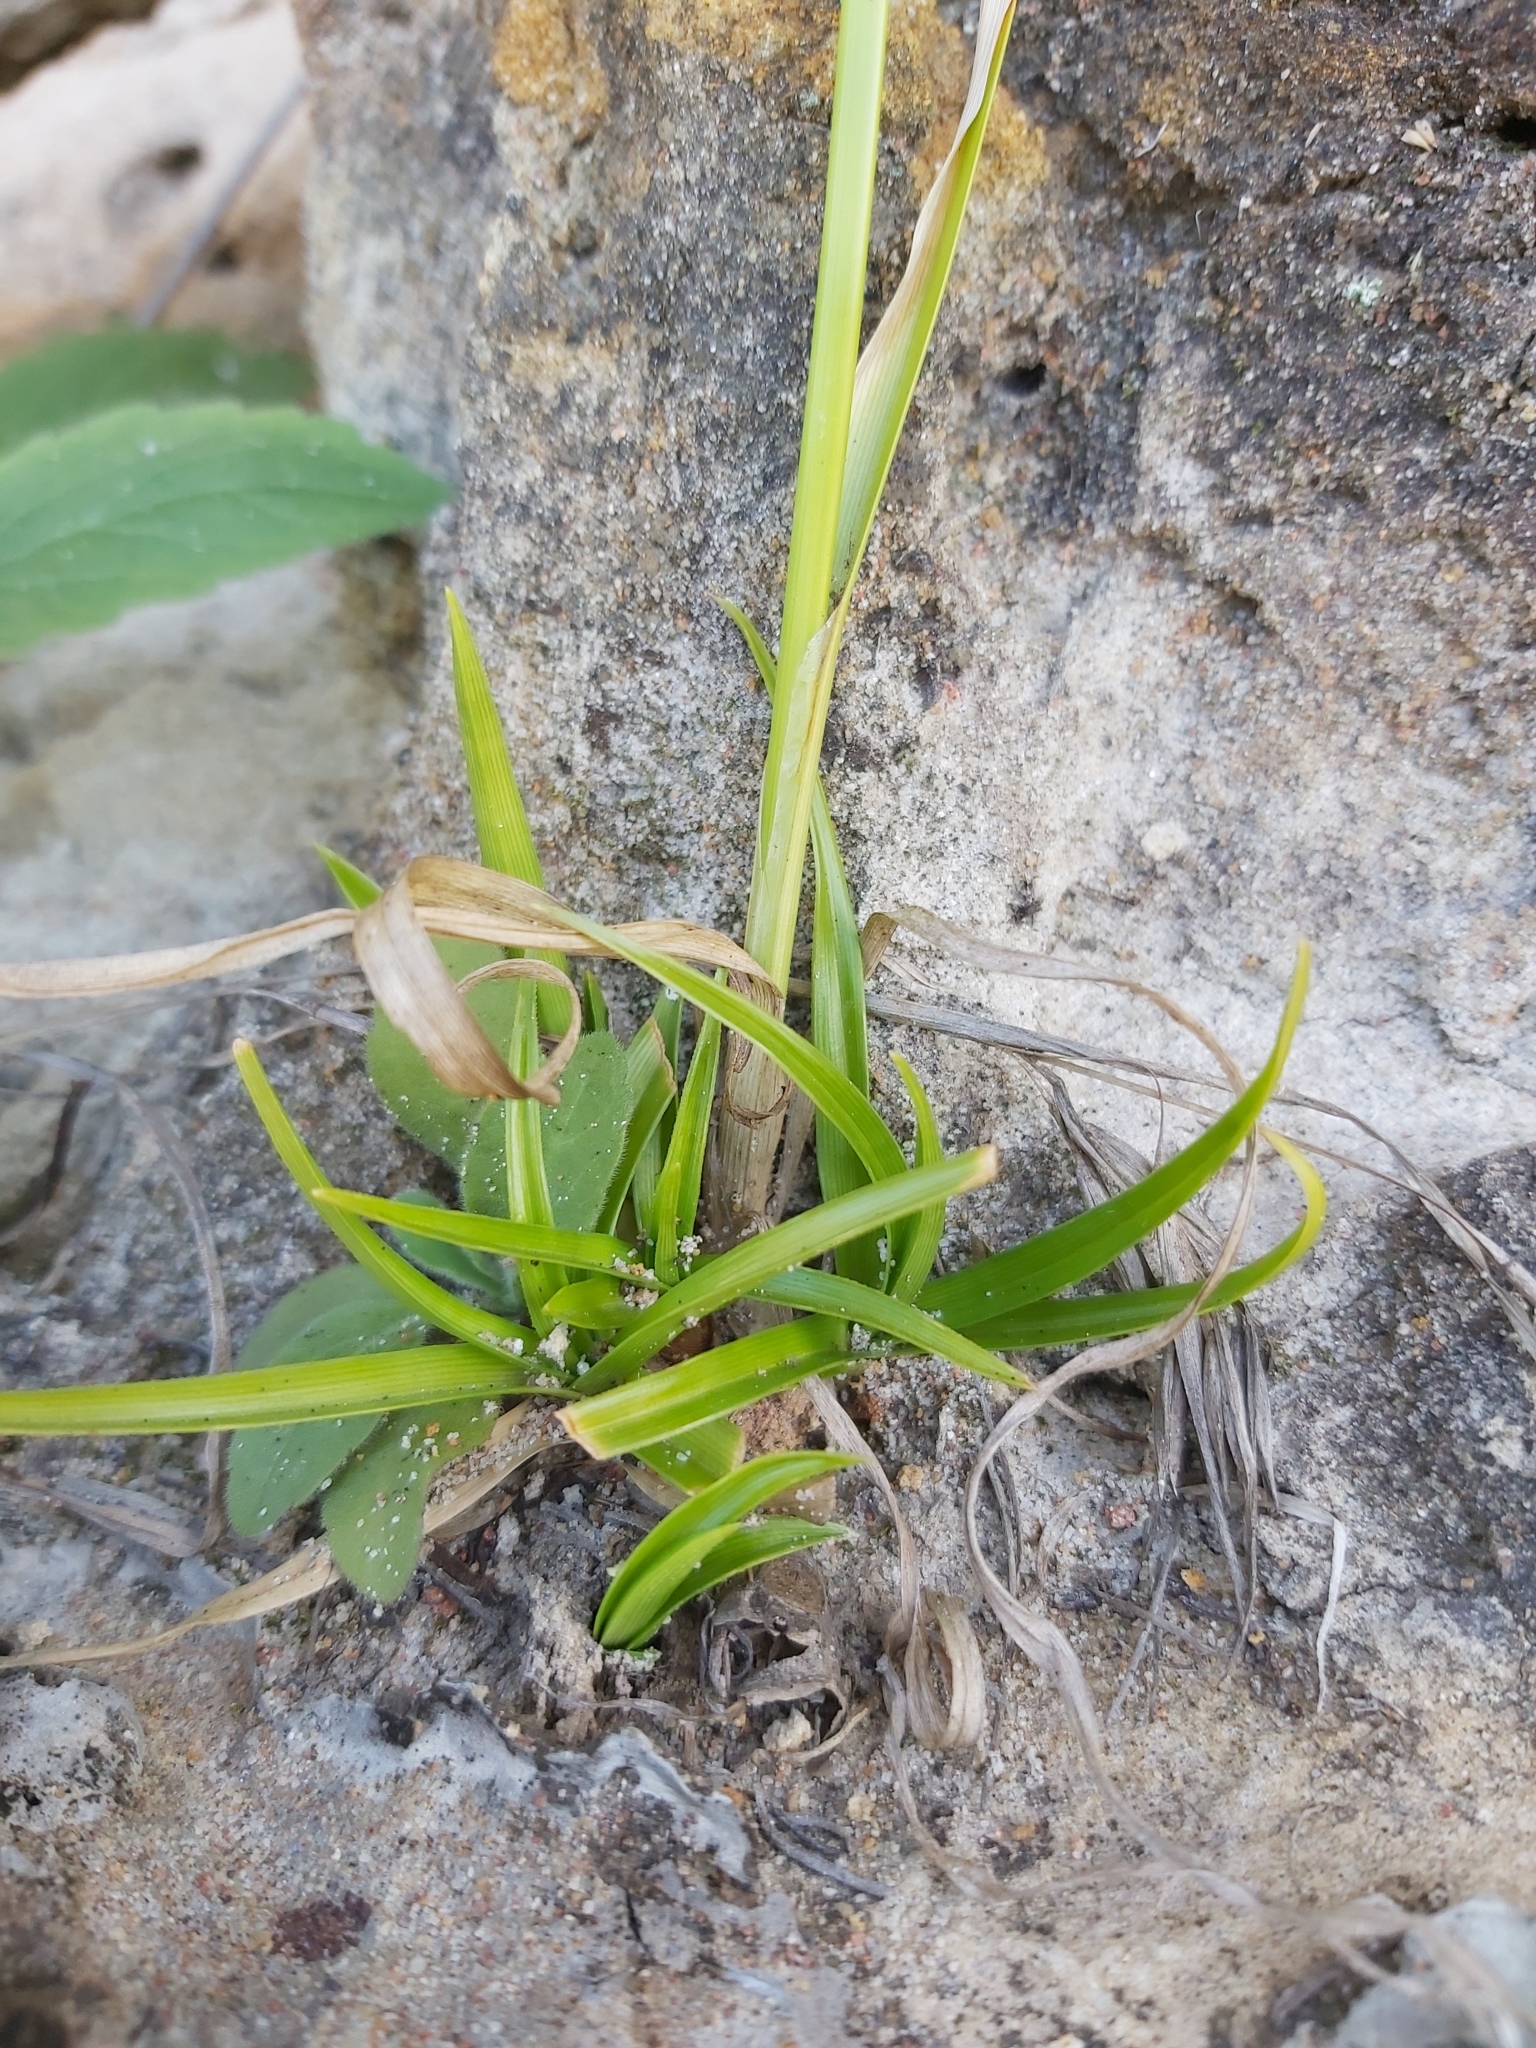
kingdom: Plantae
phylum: Tracheophyta
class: Liliopsida
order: Poales
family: Cyperaceae
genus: Cyperus
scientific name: Cyperus eragrostis
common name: Tall flatsedge
